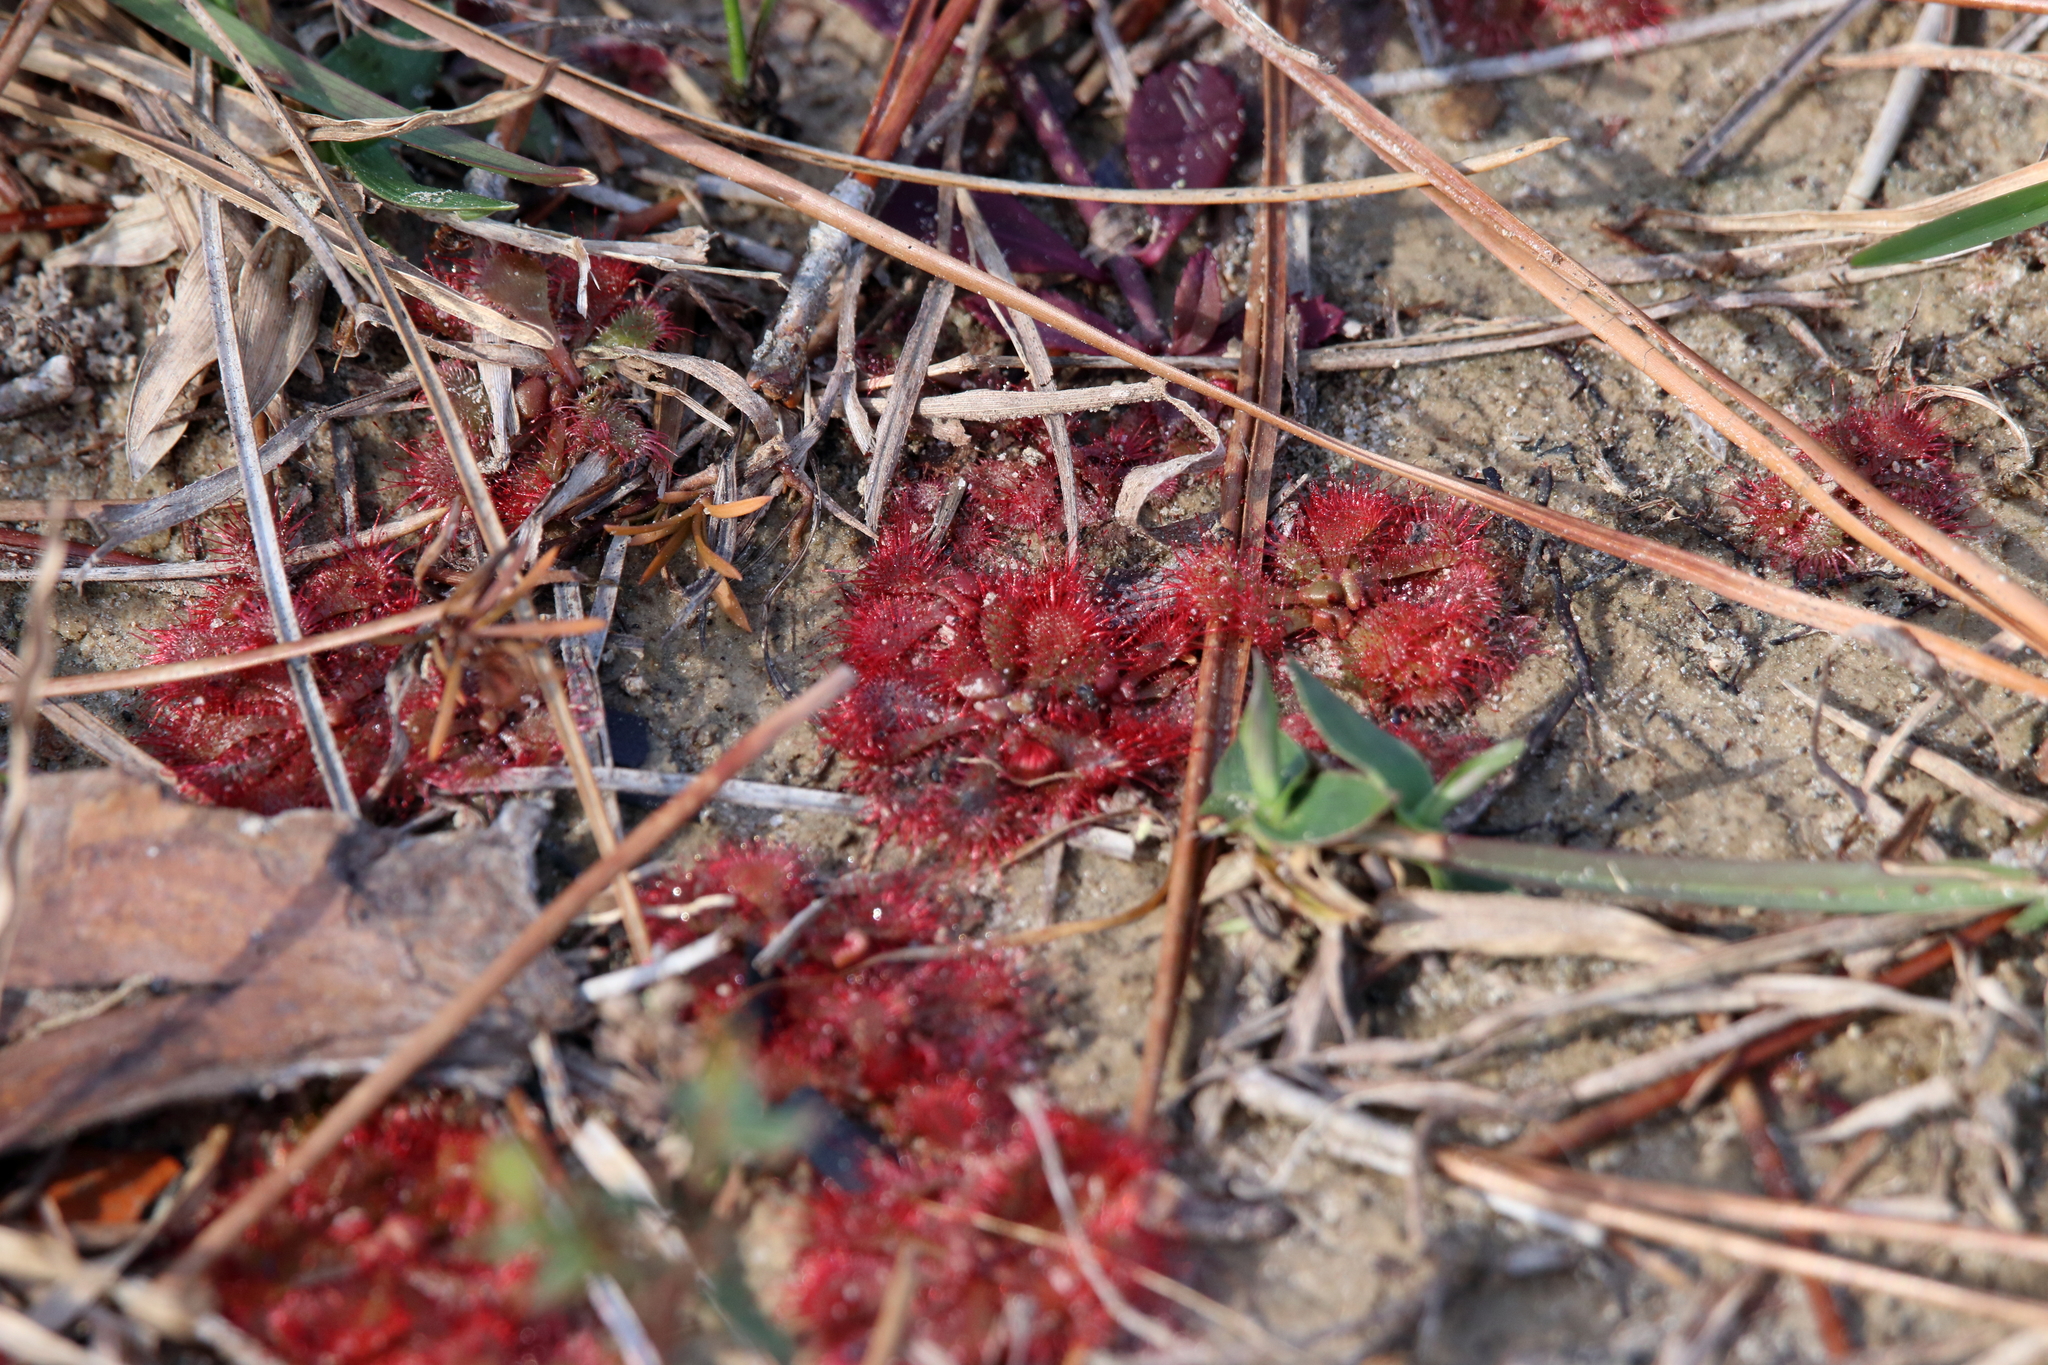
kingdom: Plantae
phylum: Tracheophyta
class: Magnoliopsida
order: Caryophyllales
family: Droseraceae
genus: Drosera
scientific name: Drosera brevifolia
